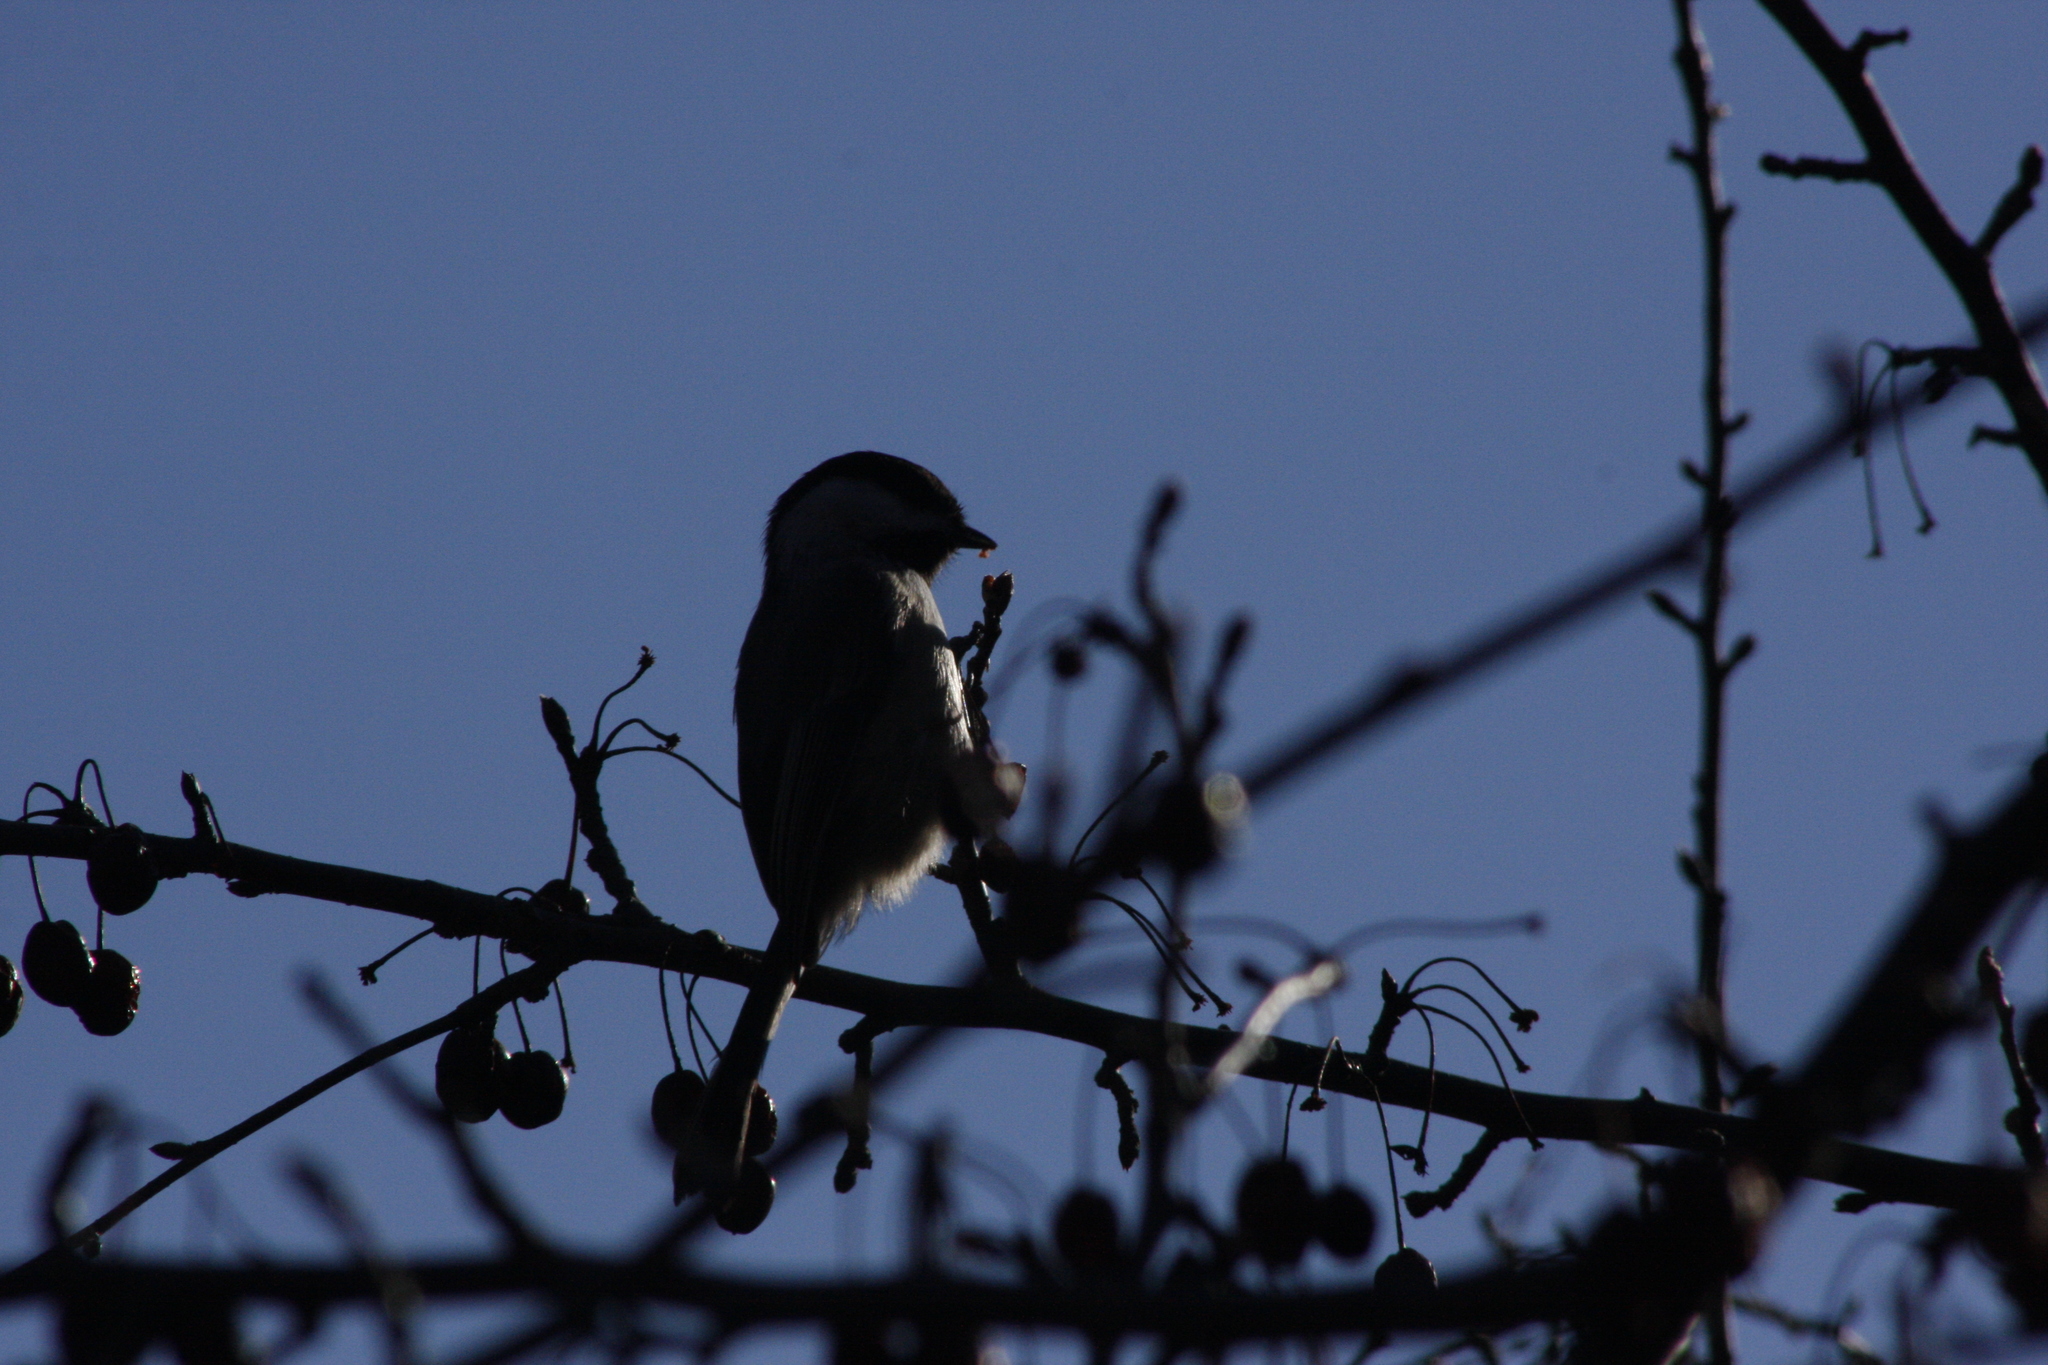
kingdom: Animalia
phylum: Chordata
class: Aves
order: Passeriformes
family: Paridae
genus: Poecile
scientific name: Poecile atricapillus
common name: Black-capped chickadee
